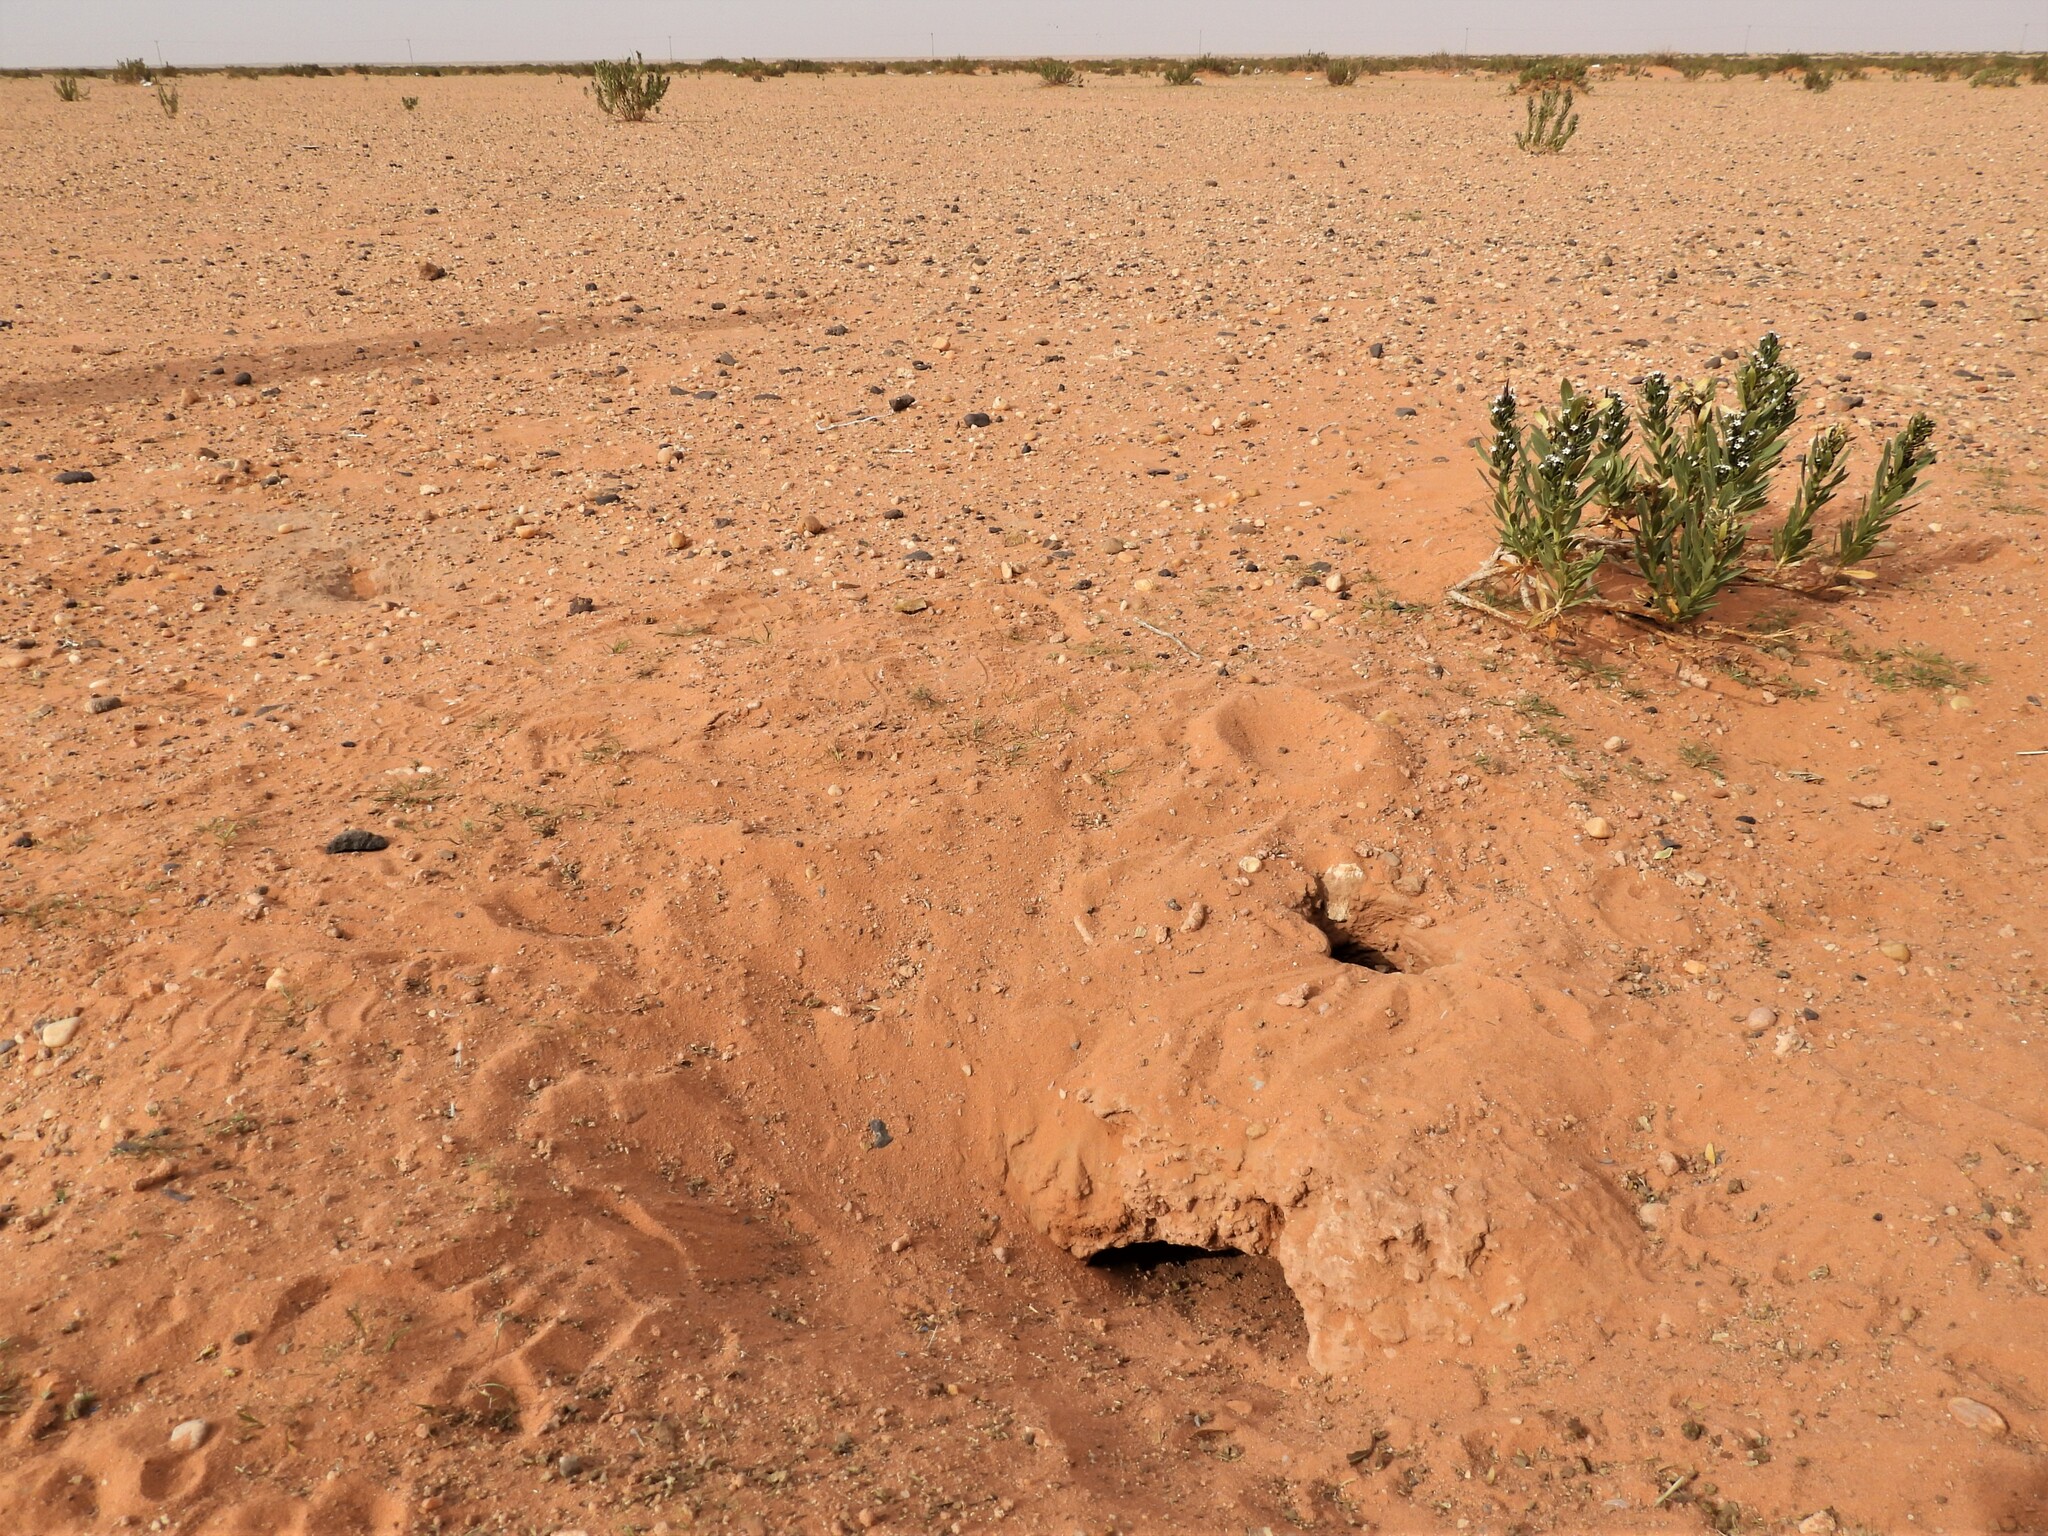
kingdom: Animalia
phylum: Chordata
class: Squamata
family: Agamidae
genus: Uromastyx
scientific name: Uromastyx aegyptia
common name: Egyptian mastigure
